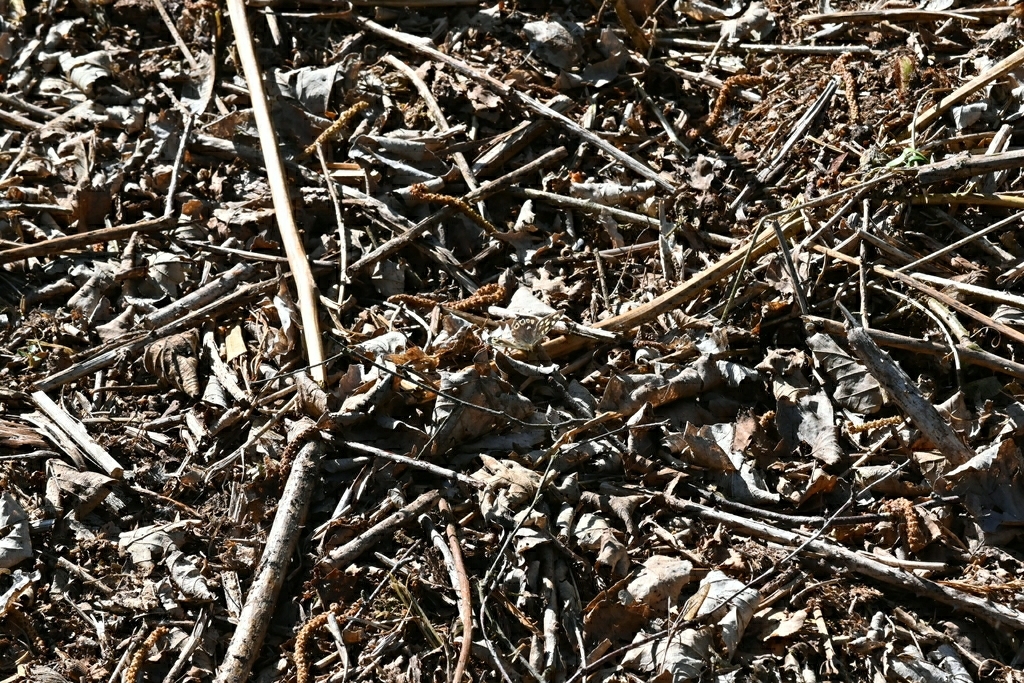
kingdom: Animalia
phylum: Arthropoda
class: Insecta
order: Lepidoptera
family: Nymphalidae
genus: Pararge
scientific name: Pararge aegeria
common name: Speckled wood
